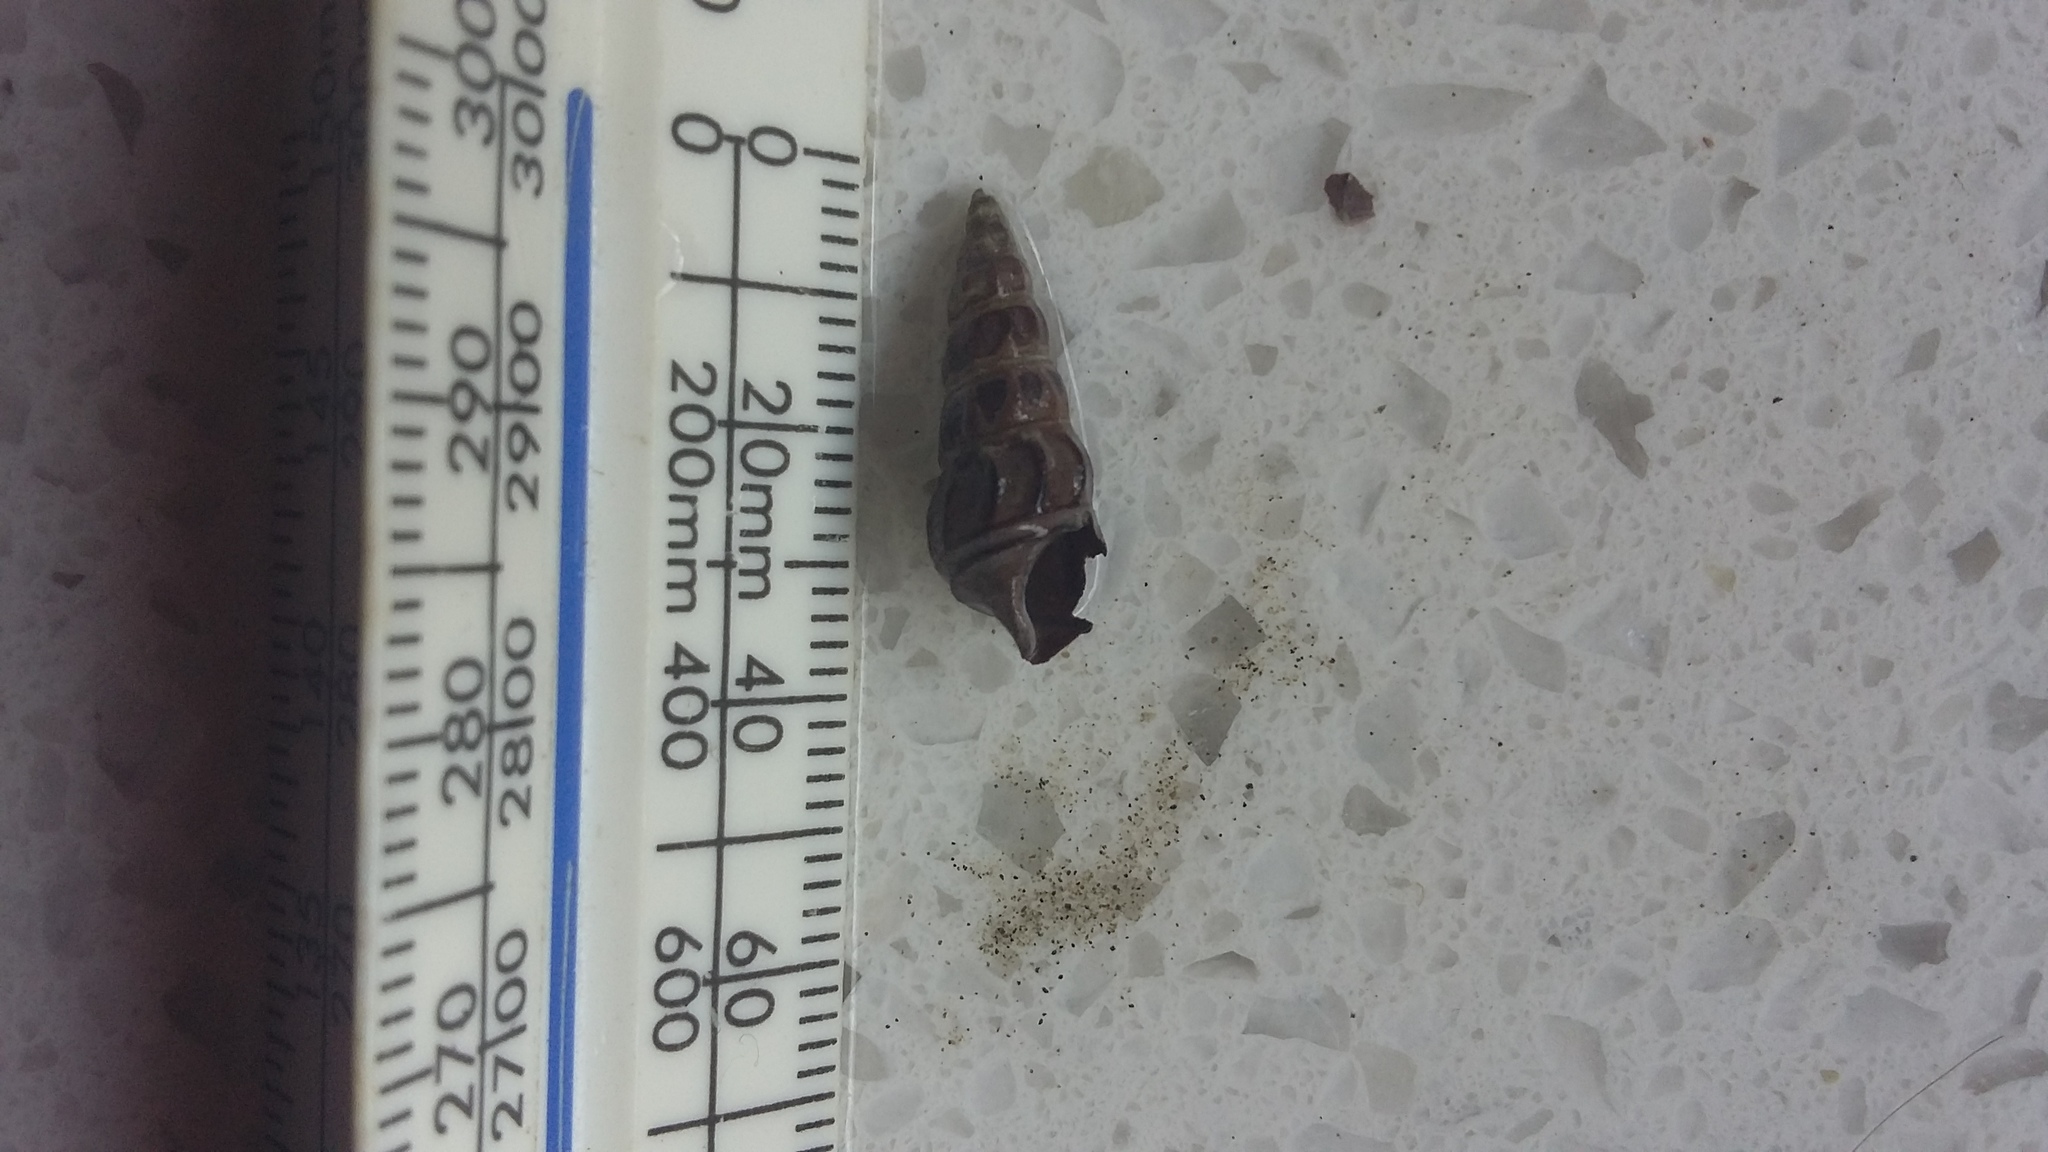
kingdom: Animalia
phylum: Mollusca
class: Gastropoda
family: Batillariidae
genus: Zeacumantus
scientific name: Zeacumantus lutulentus
